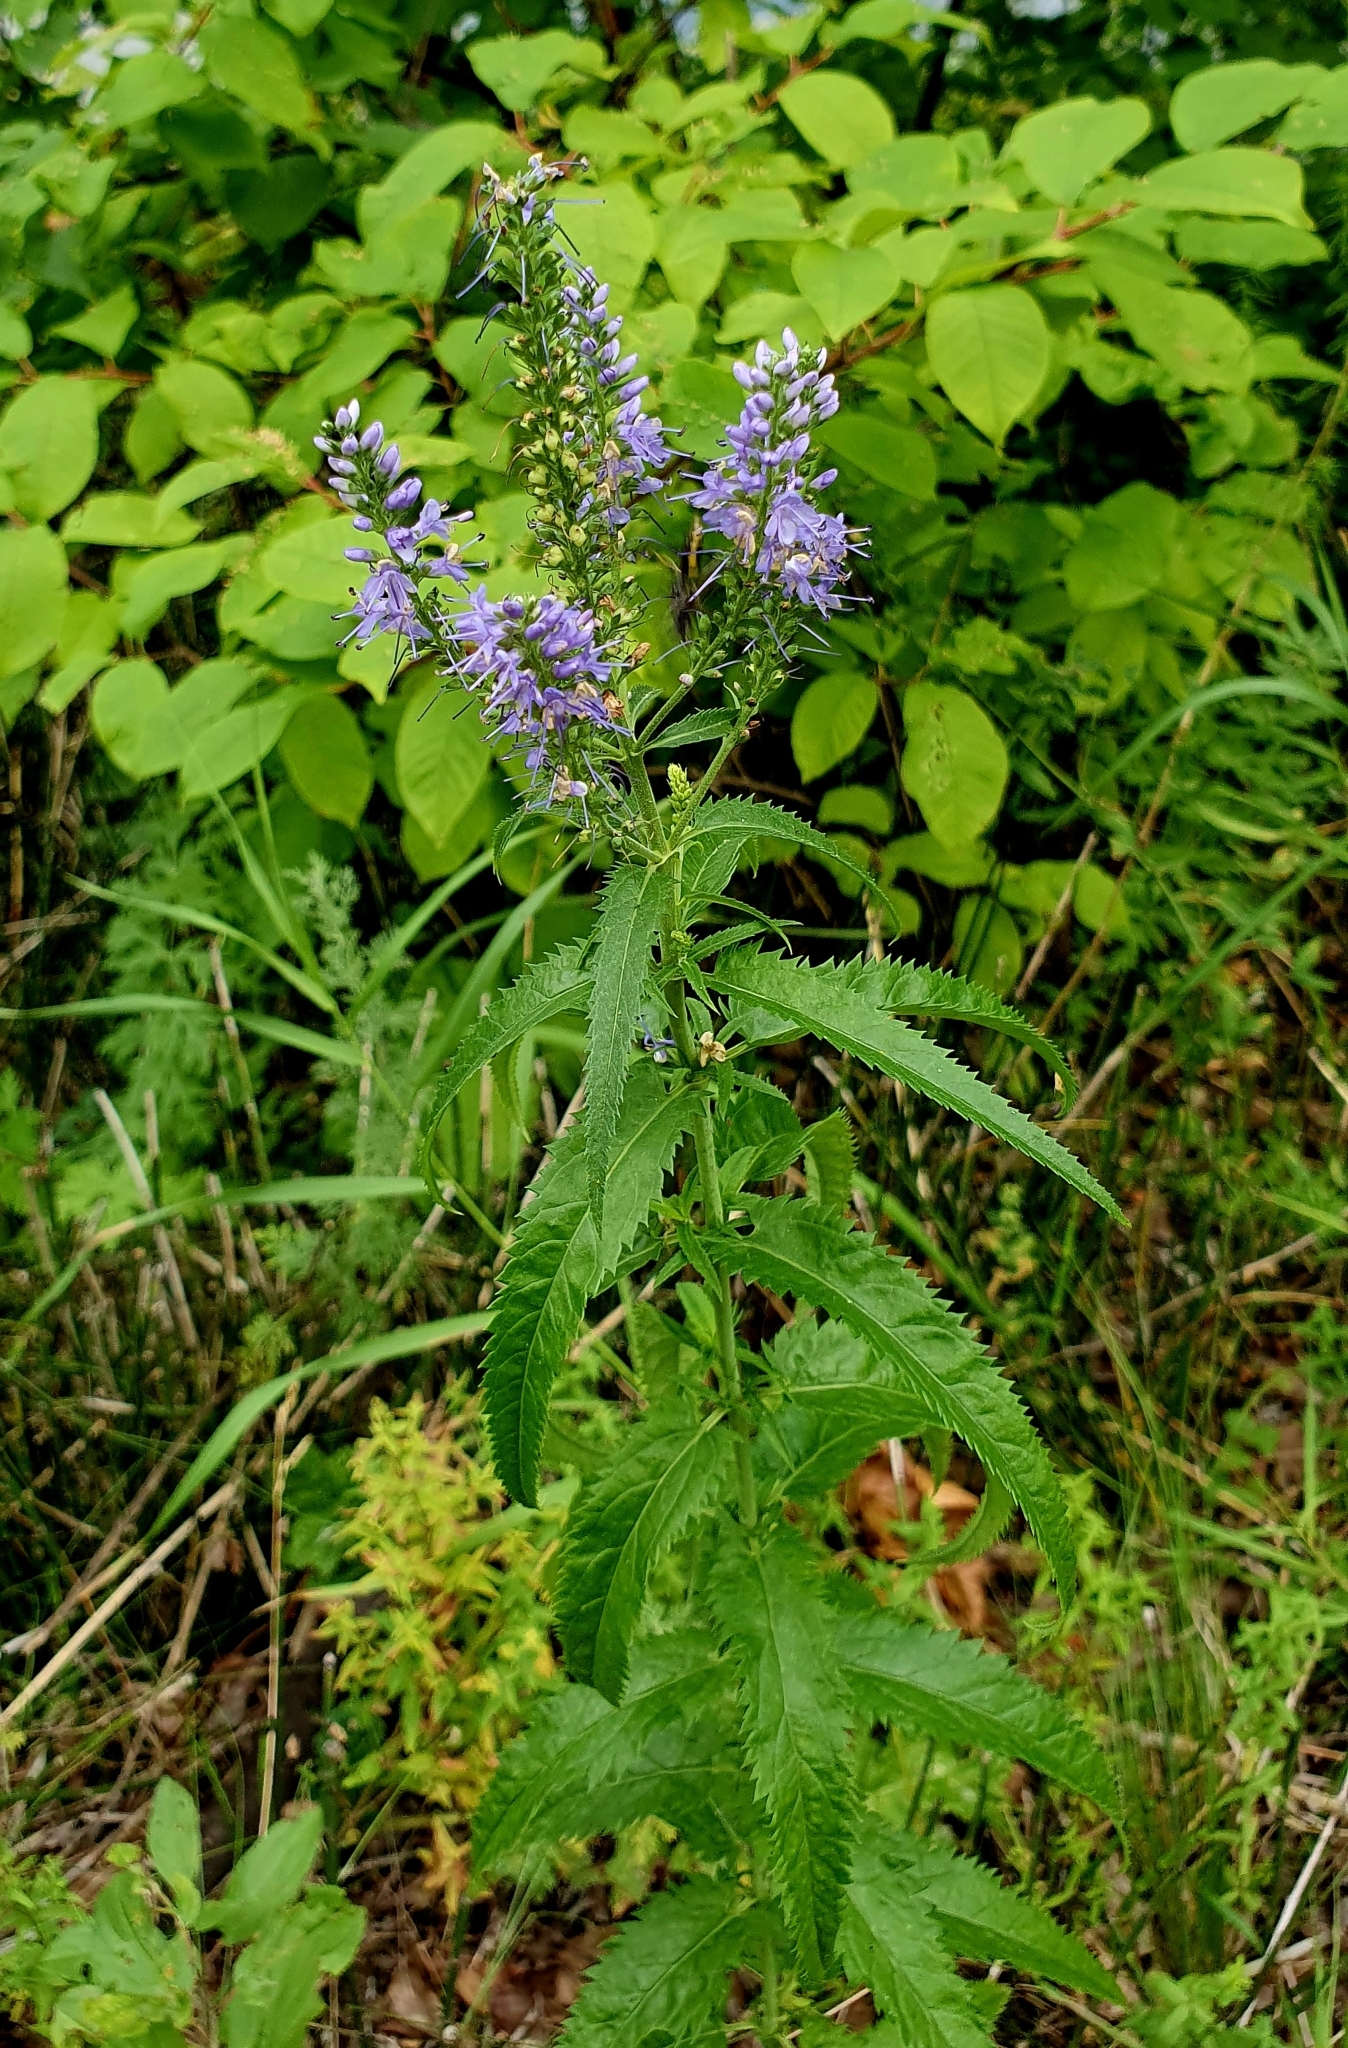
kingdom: Plantae
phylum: Tracheophyta
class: Magnoliopsida
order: Lamiales
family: Plantaginaceae
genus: Veronica
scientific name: Veronica longifolia
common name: Garden speedwell
